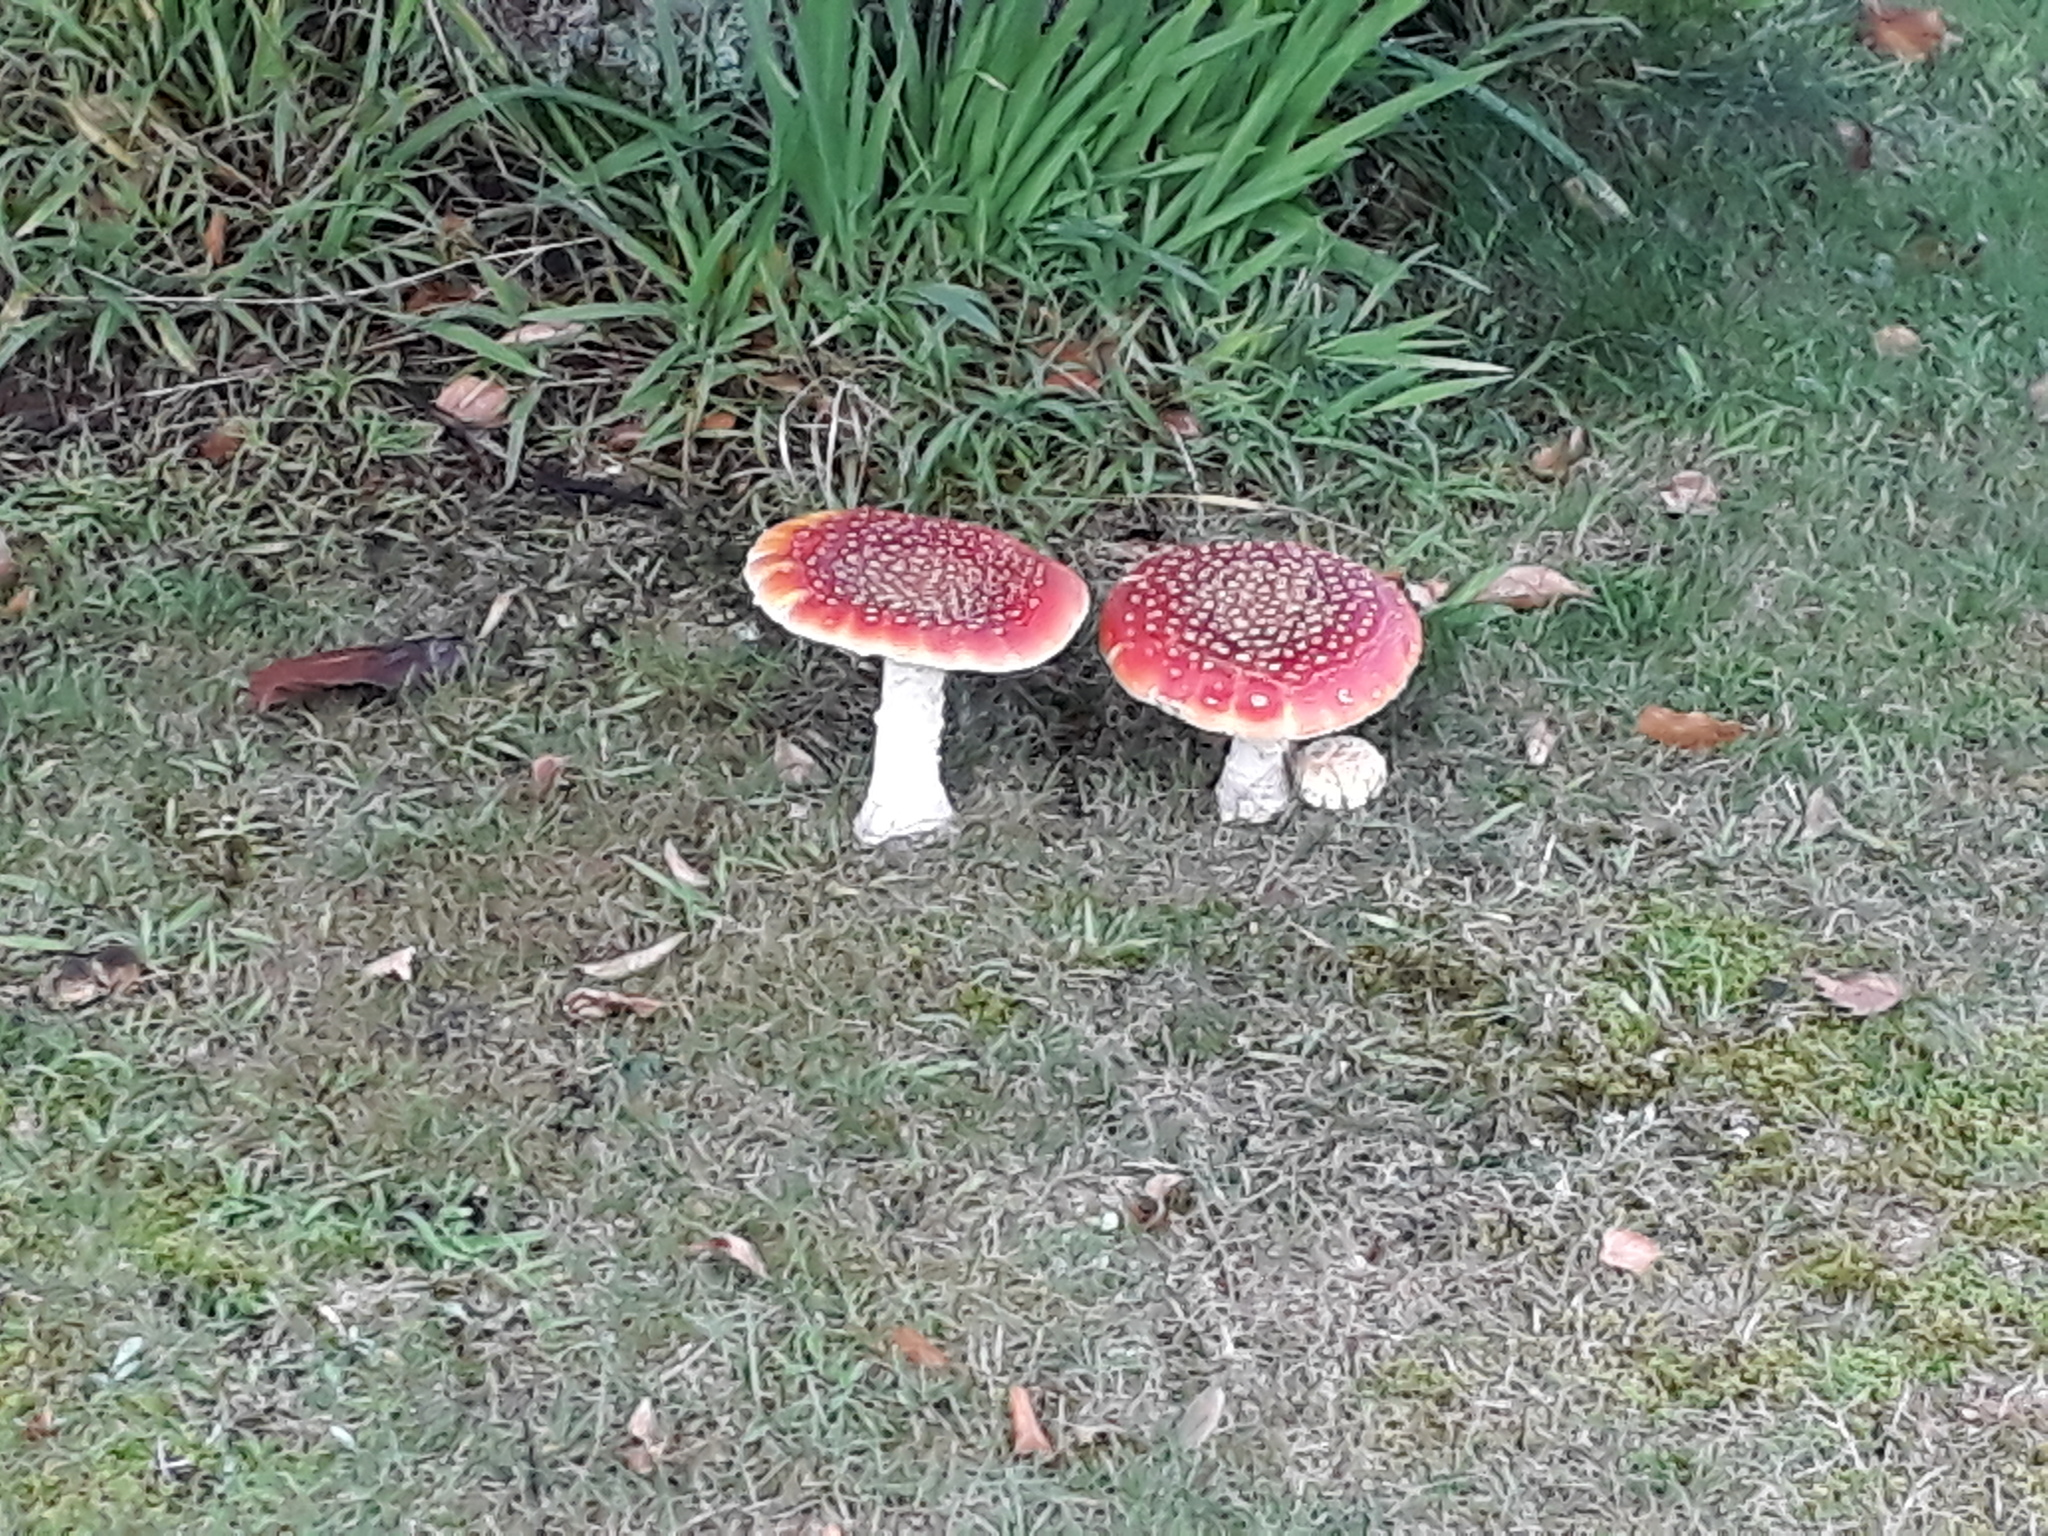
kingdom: Fungi
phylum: Basidiomycota
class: Agaricomycetes
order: Agaricales
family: Amanitaceae
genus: Amanita
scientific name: Amanita muscaria
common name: Fly agaric
